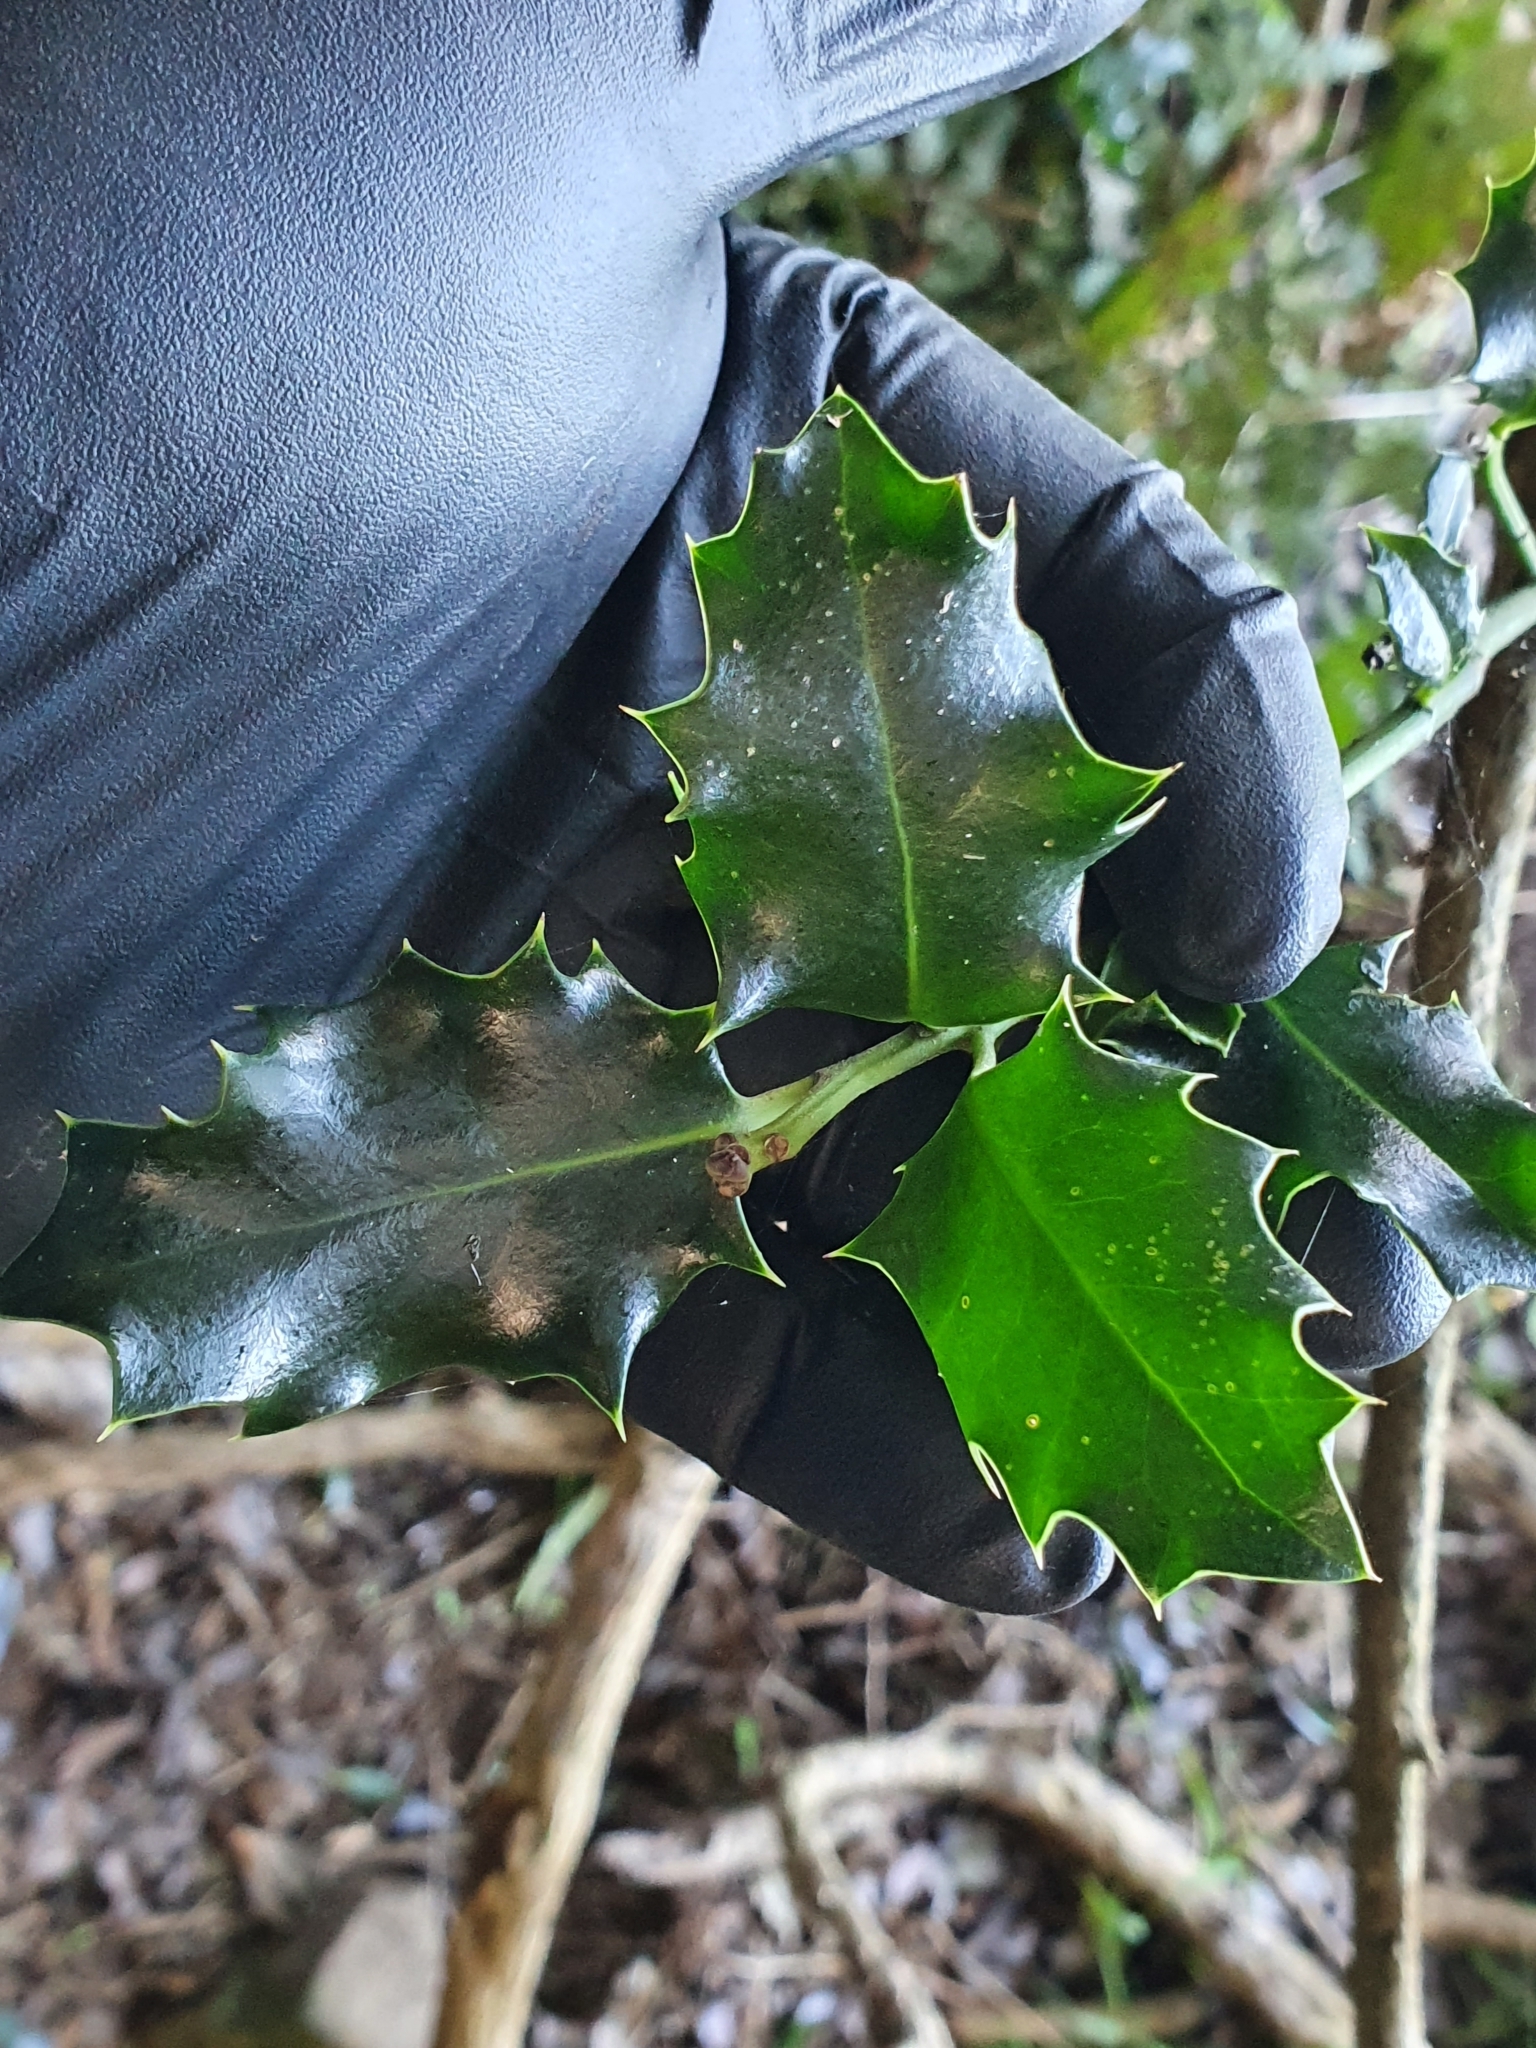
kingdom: Plantae
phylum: Tracheophyta
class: Magnoliopsida
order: Aquifoliales
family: Aquifoliaceae
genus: Ilex
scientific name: Ilex aquifolium
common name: English holly
